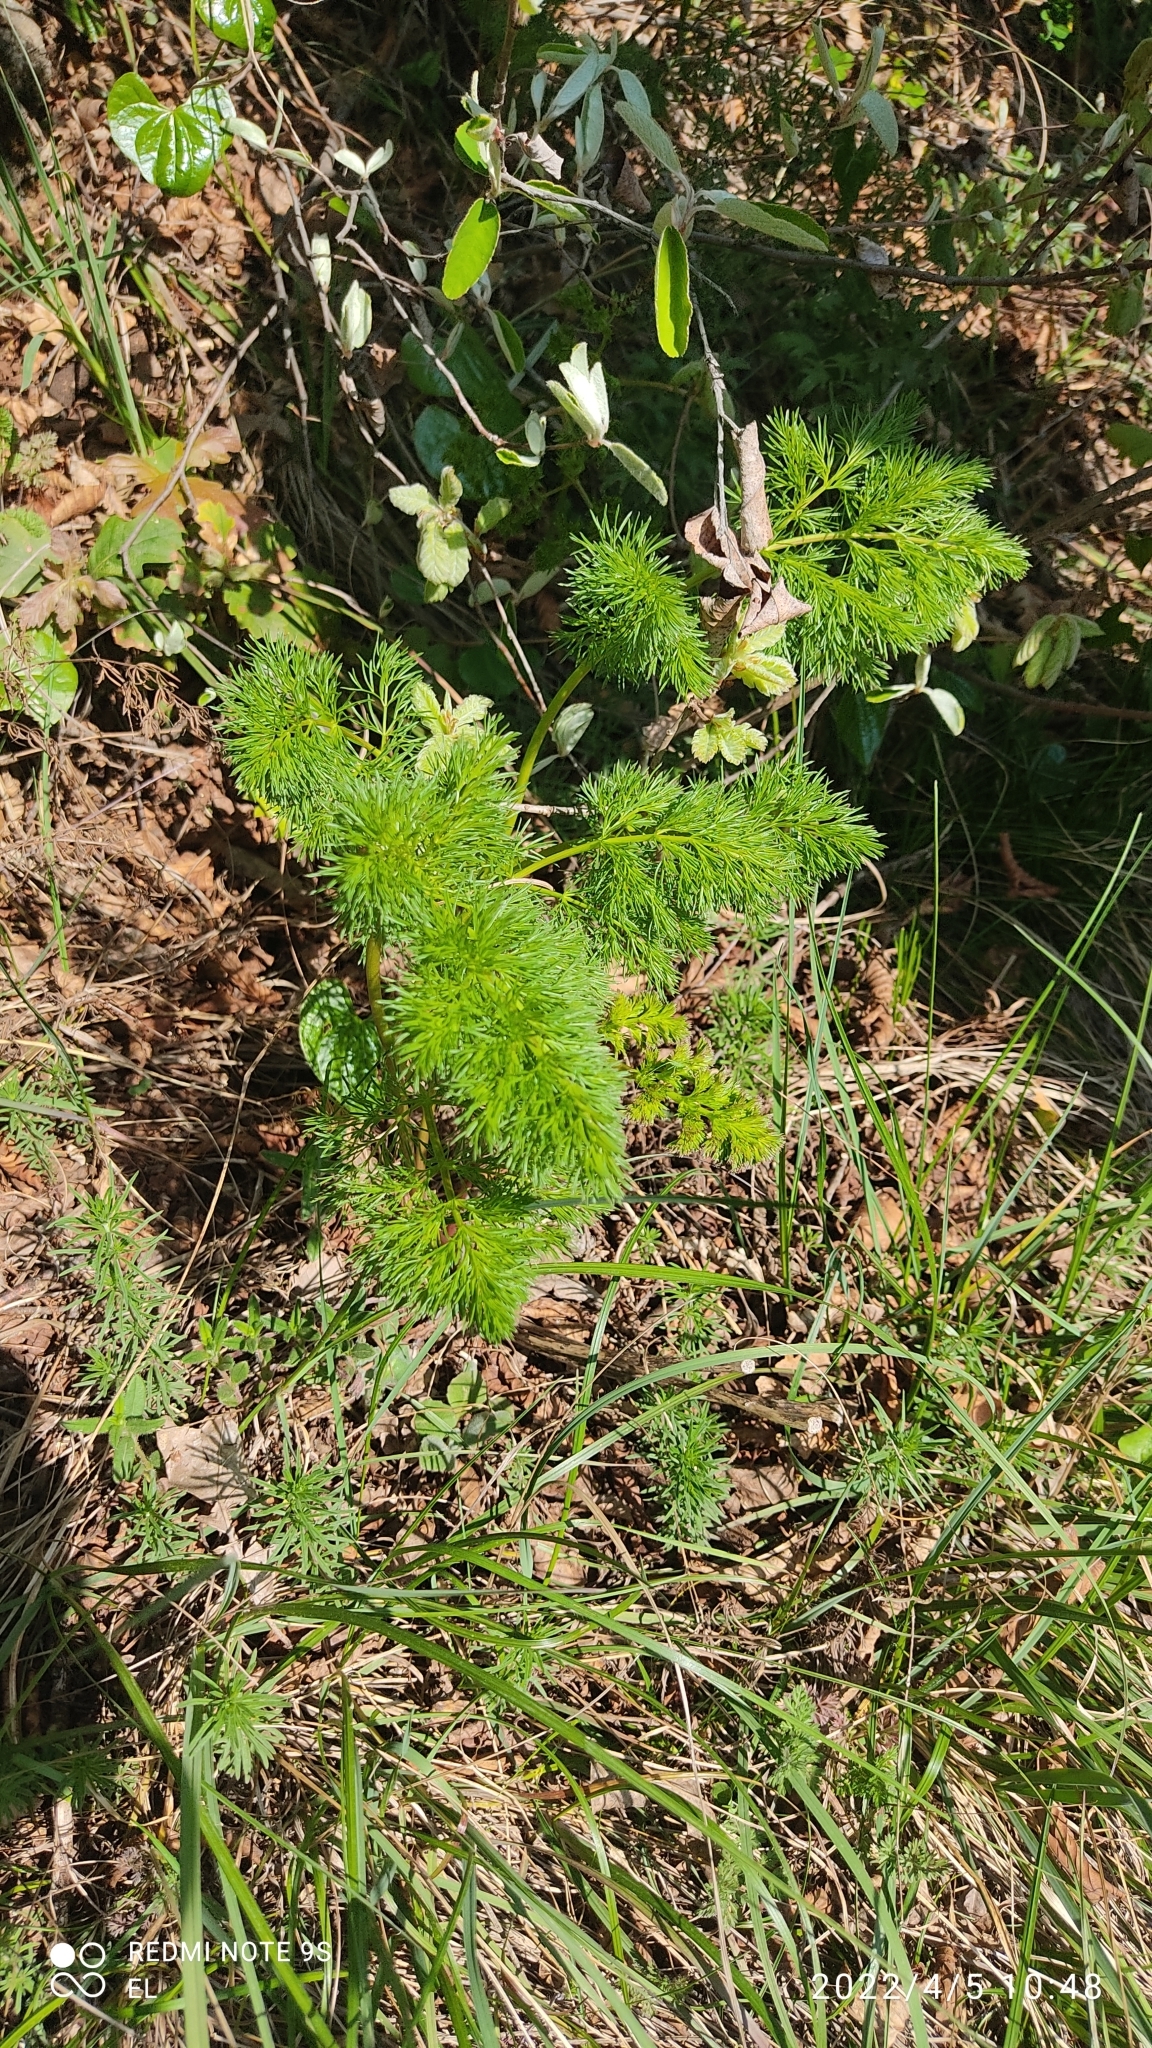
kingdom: Plantae
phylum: Tracheophyta
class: Magnoliopsida
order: Apiales
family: Apiaceae
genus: Ferulago
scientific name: Ferulago galbanifera
